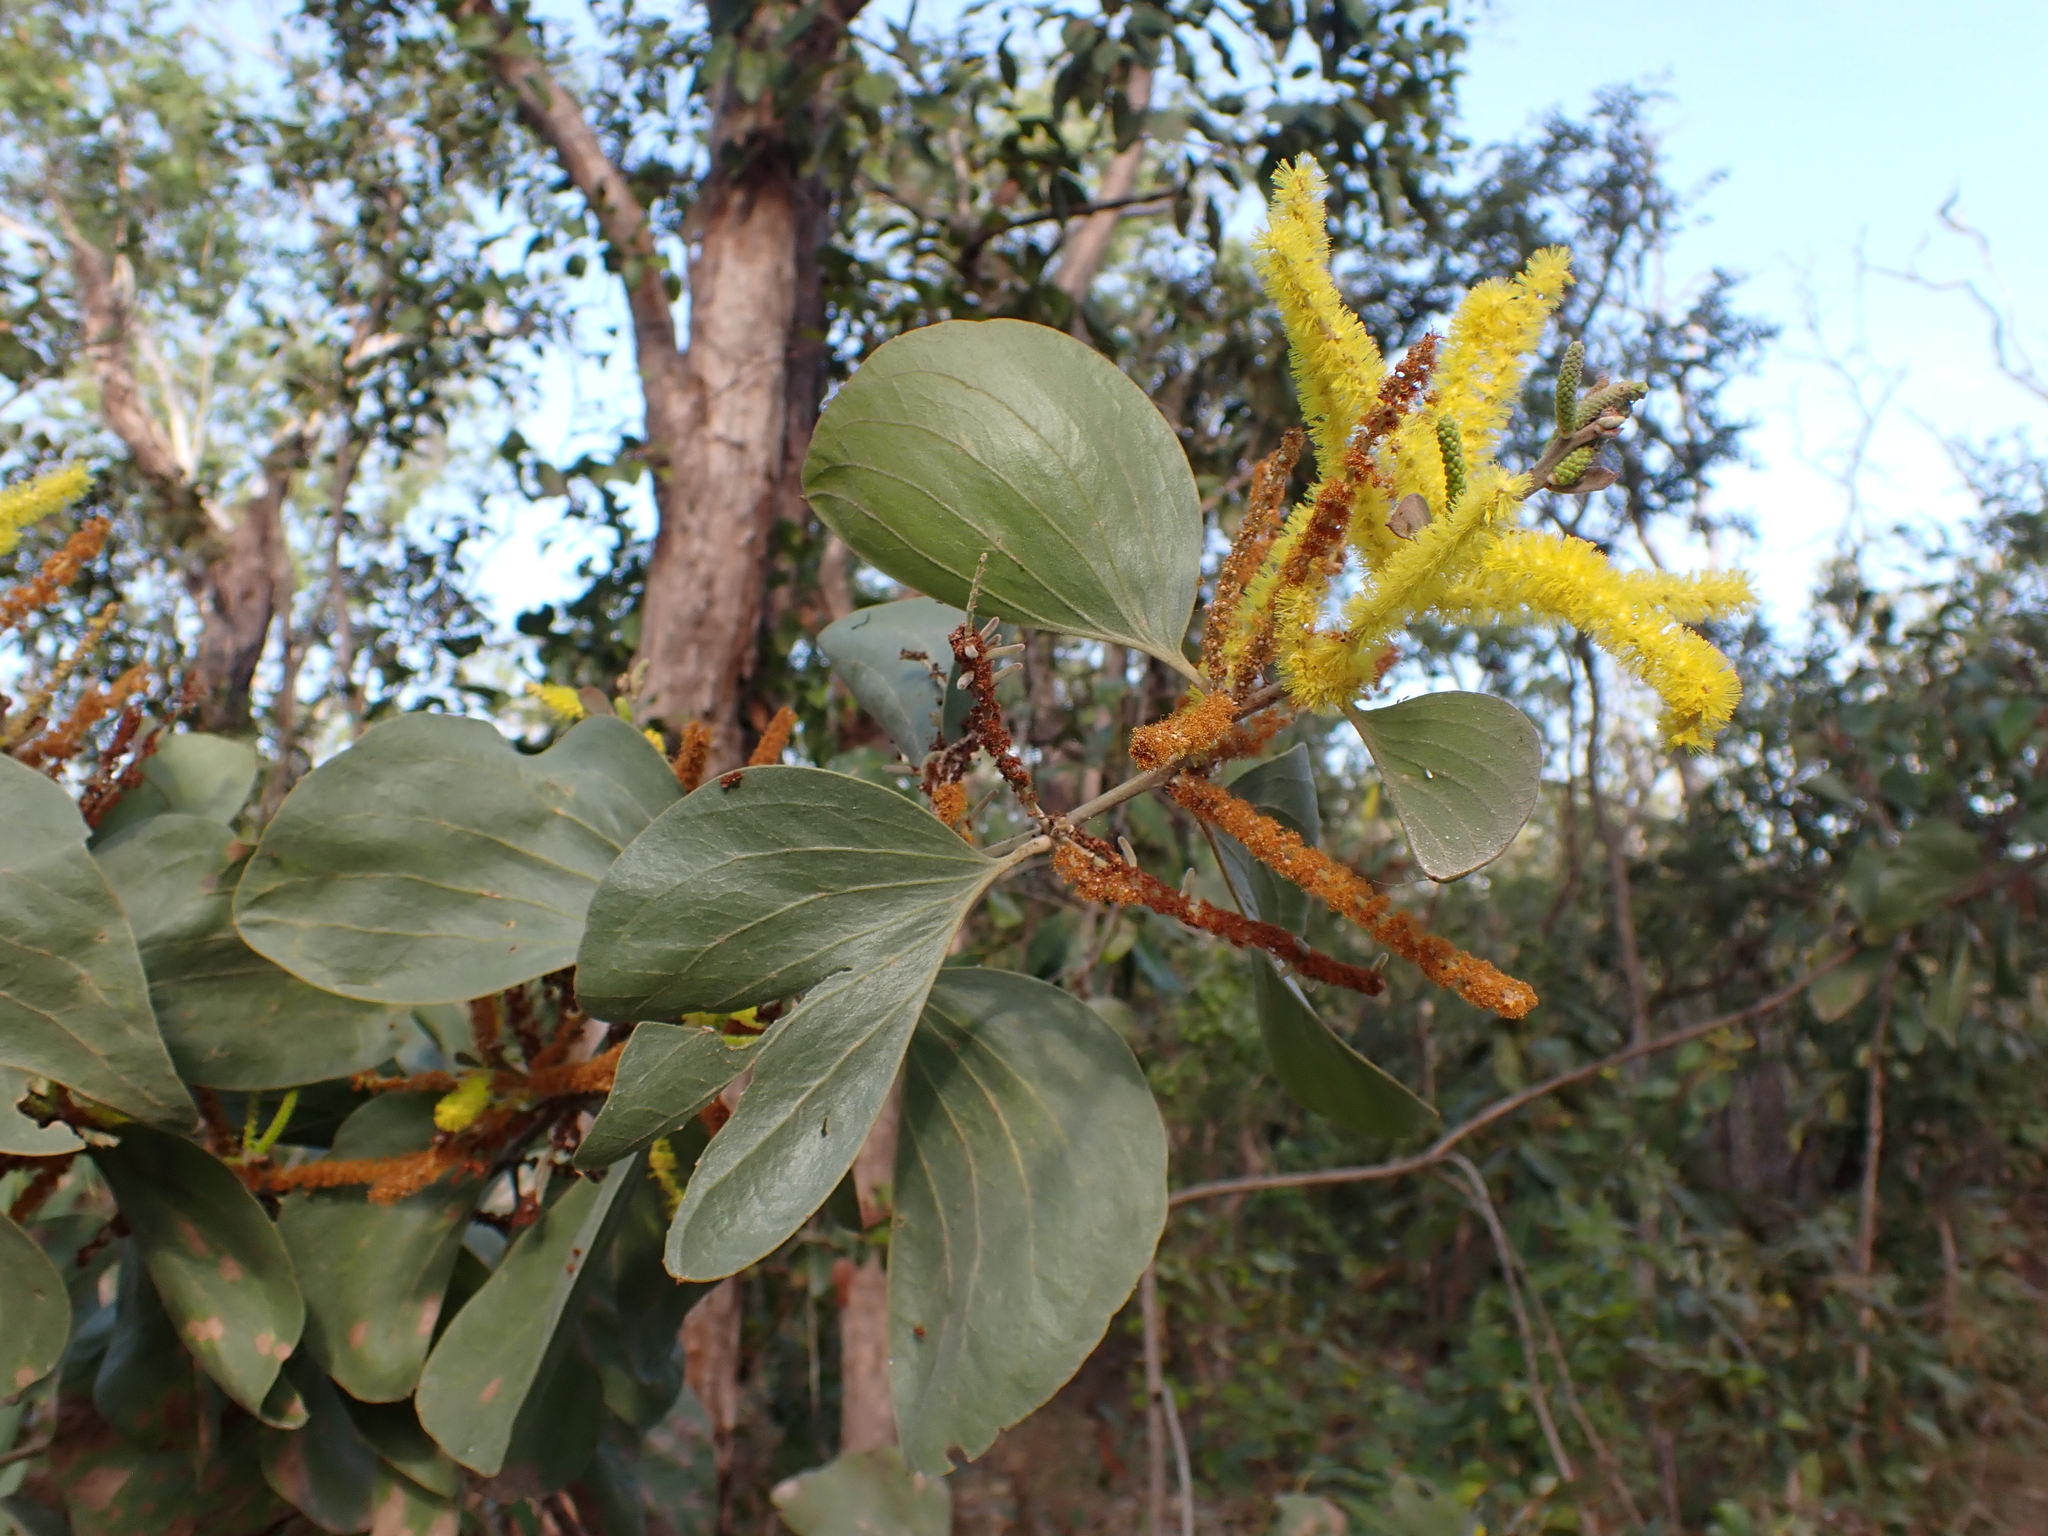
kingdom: Plantae
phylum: Tracheophyta
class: Magnoliopsida
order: Fabales
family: Fabaceae
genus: Acacia
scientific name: Acacia dimidiata
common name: Swamp wattle
